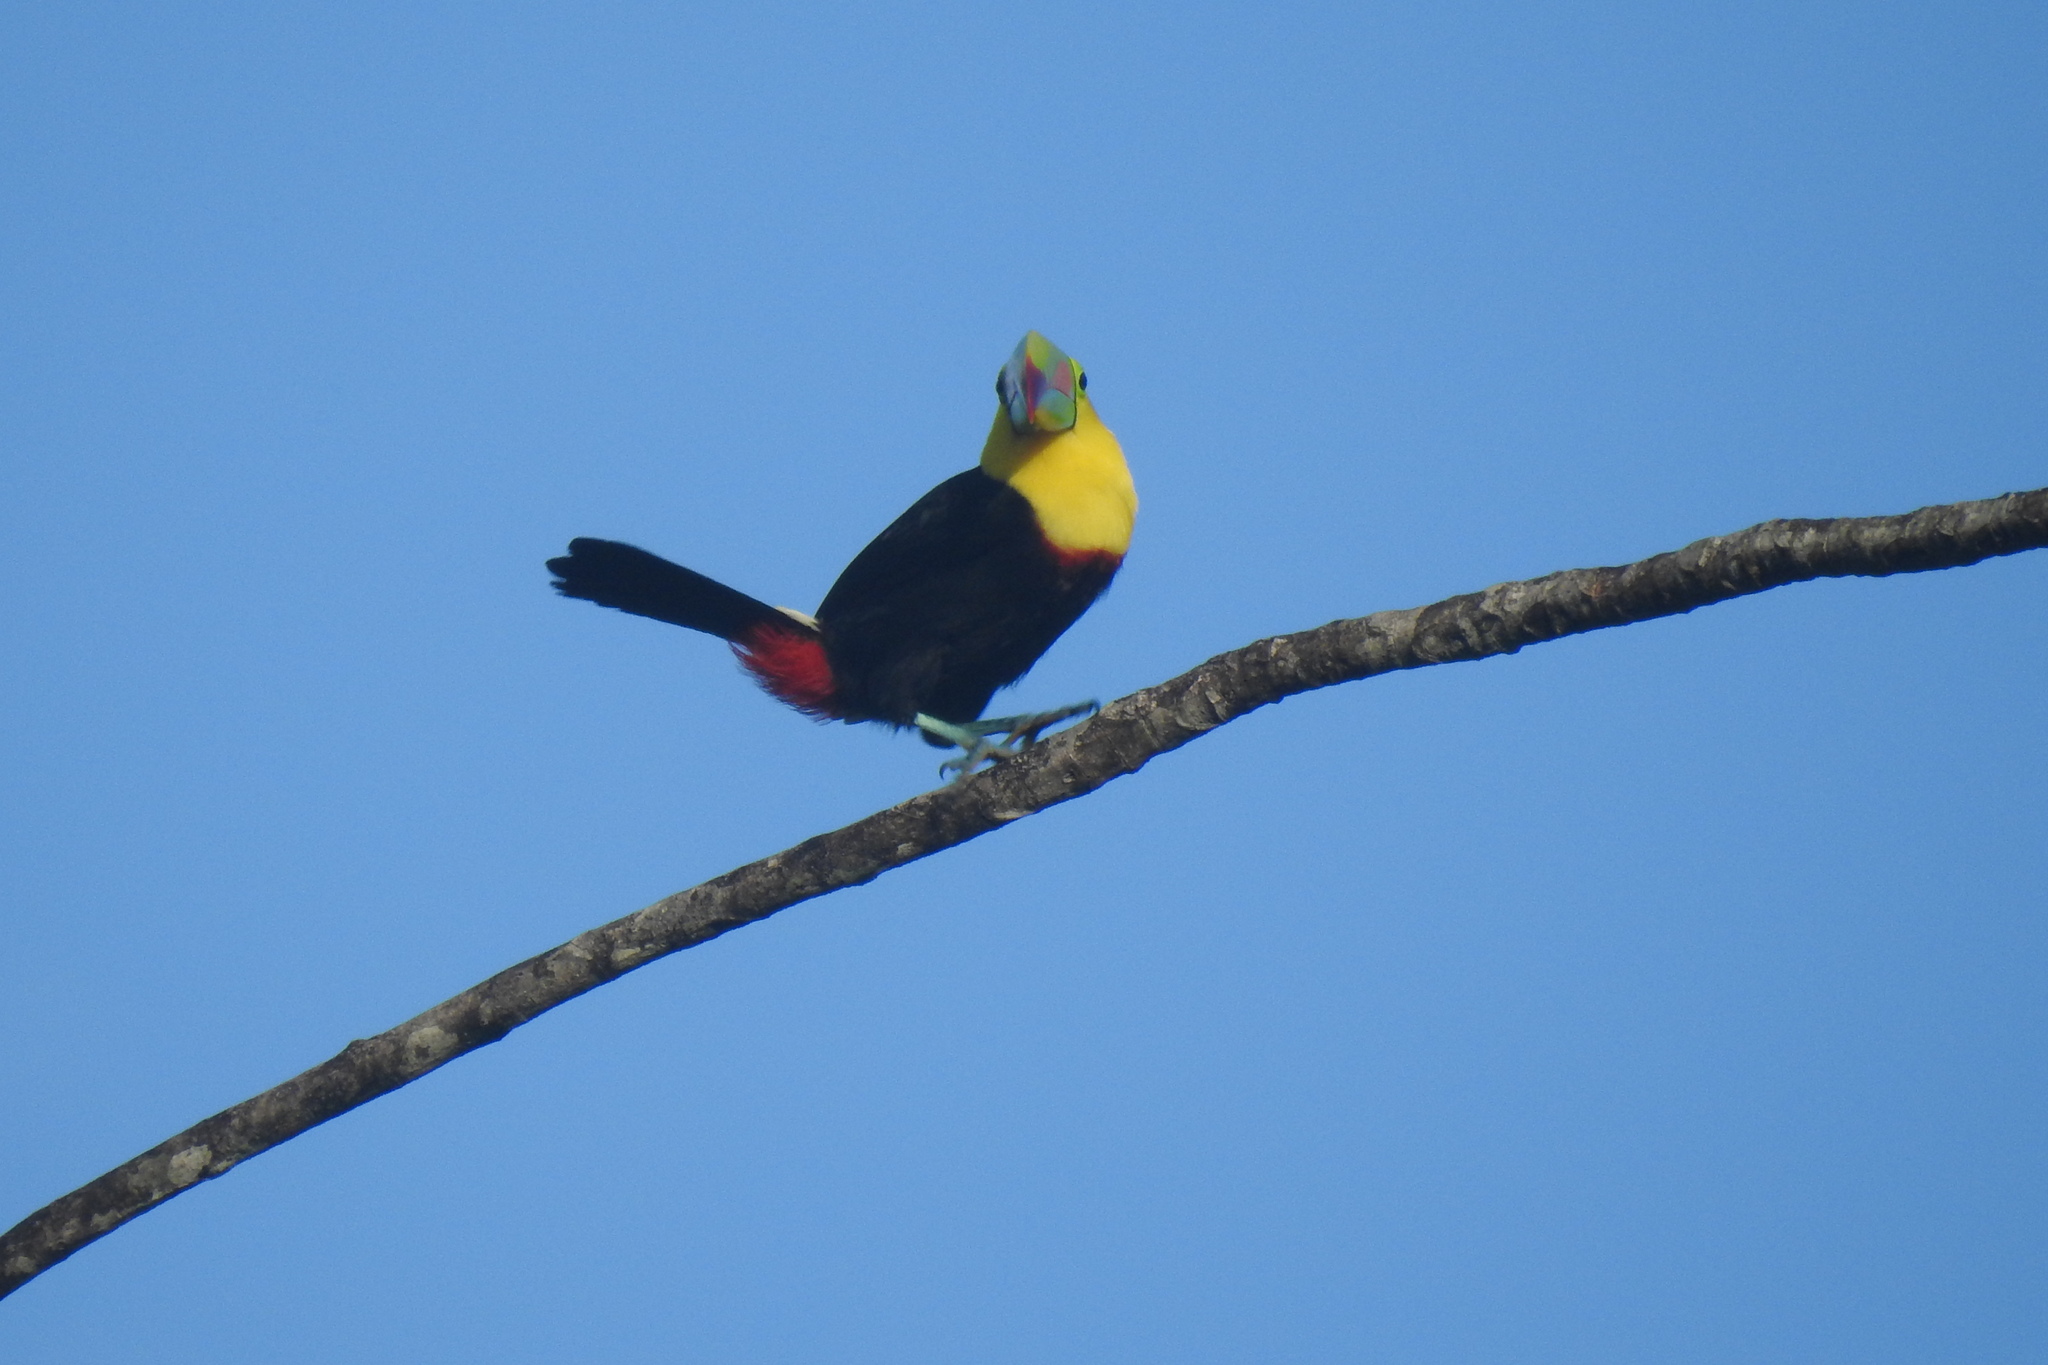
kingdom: Animalia
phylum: Chordata
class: Aves
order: Piciformes
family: Ramphastidae
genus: Ramphastos
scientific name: Ramphastos sulfuratus
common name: Keel-billed toucan
